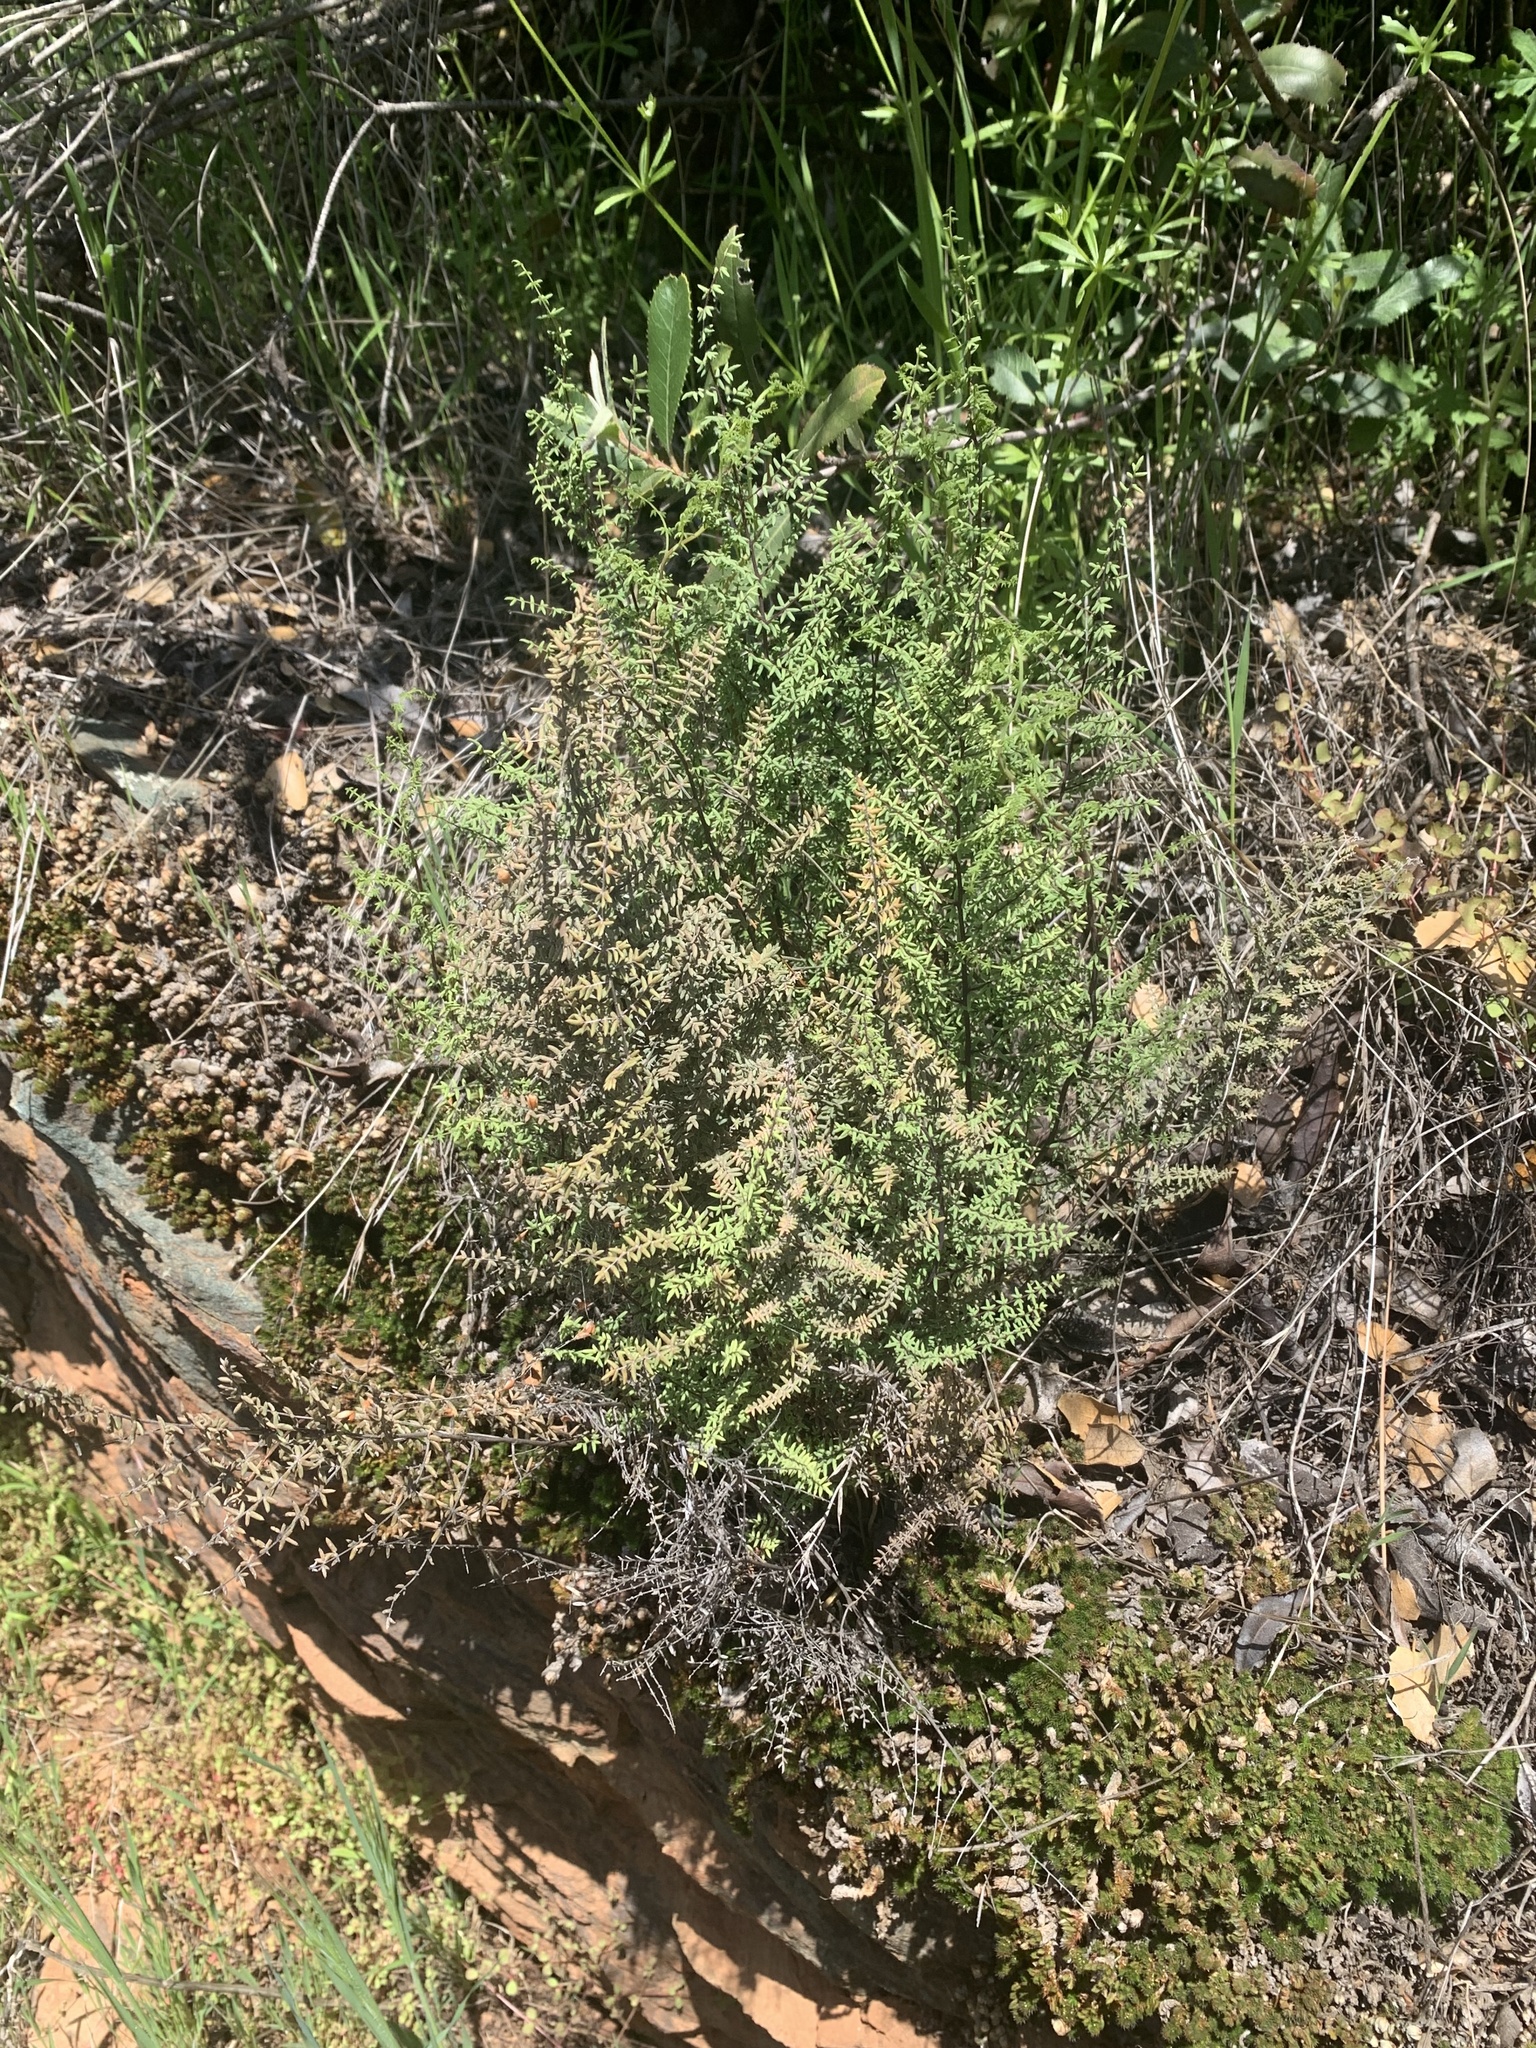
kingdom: Plantae
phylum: Tracheophyta
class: Polypodiopsida
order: Polypodiales
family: Pteridaceae
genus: Pellaea
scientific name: Pellaea mucronata
